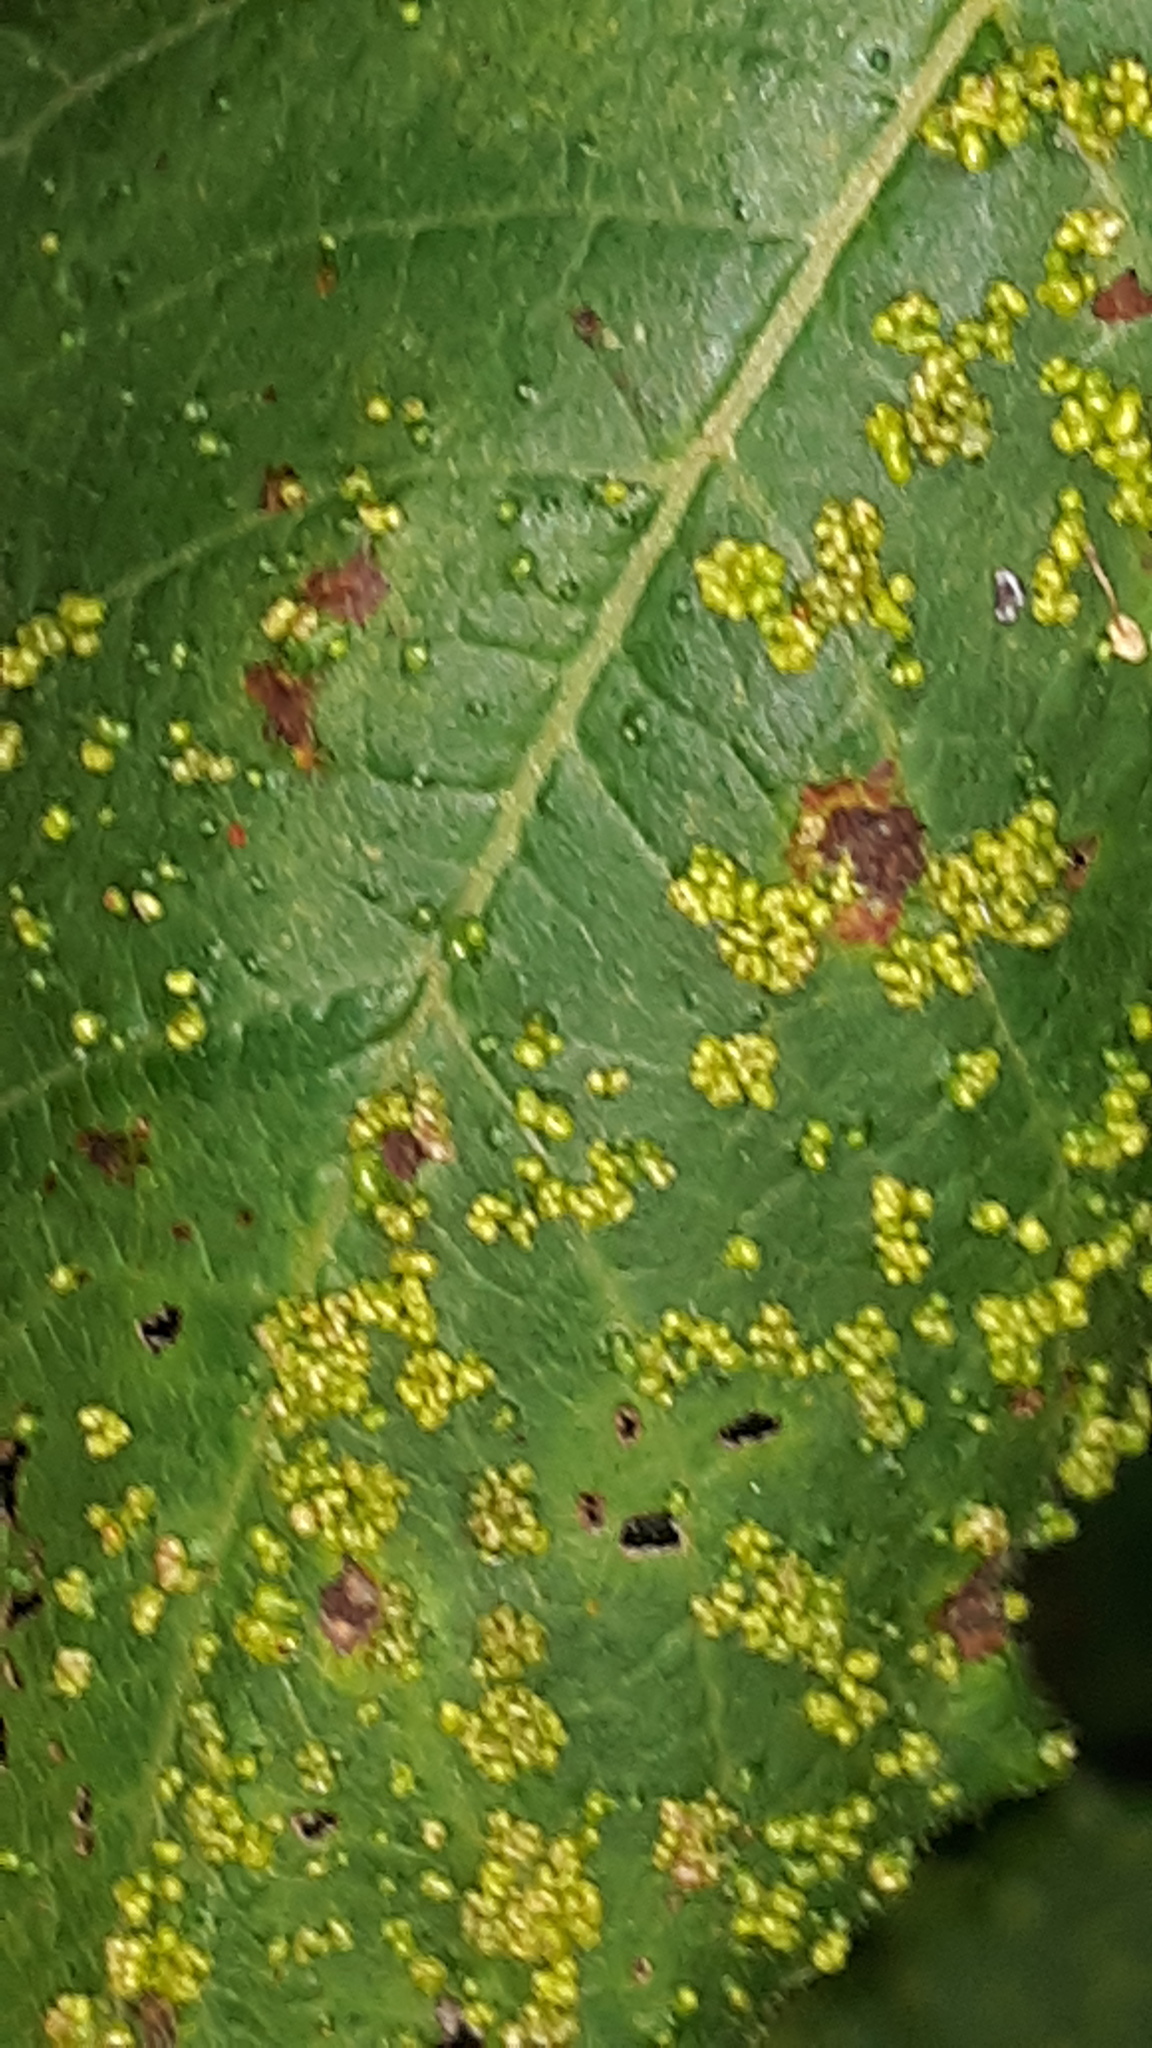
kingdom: Animalia
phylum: Arthropoda
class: Arachnida
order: Trombidiformes
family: Eriophyidae
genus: Aculops
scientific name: Aculops
